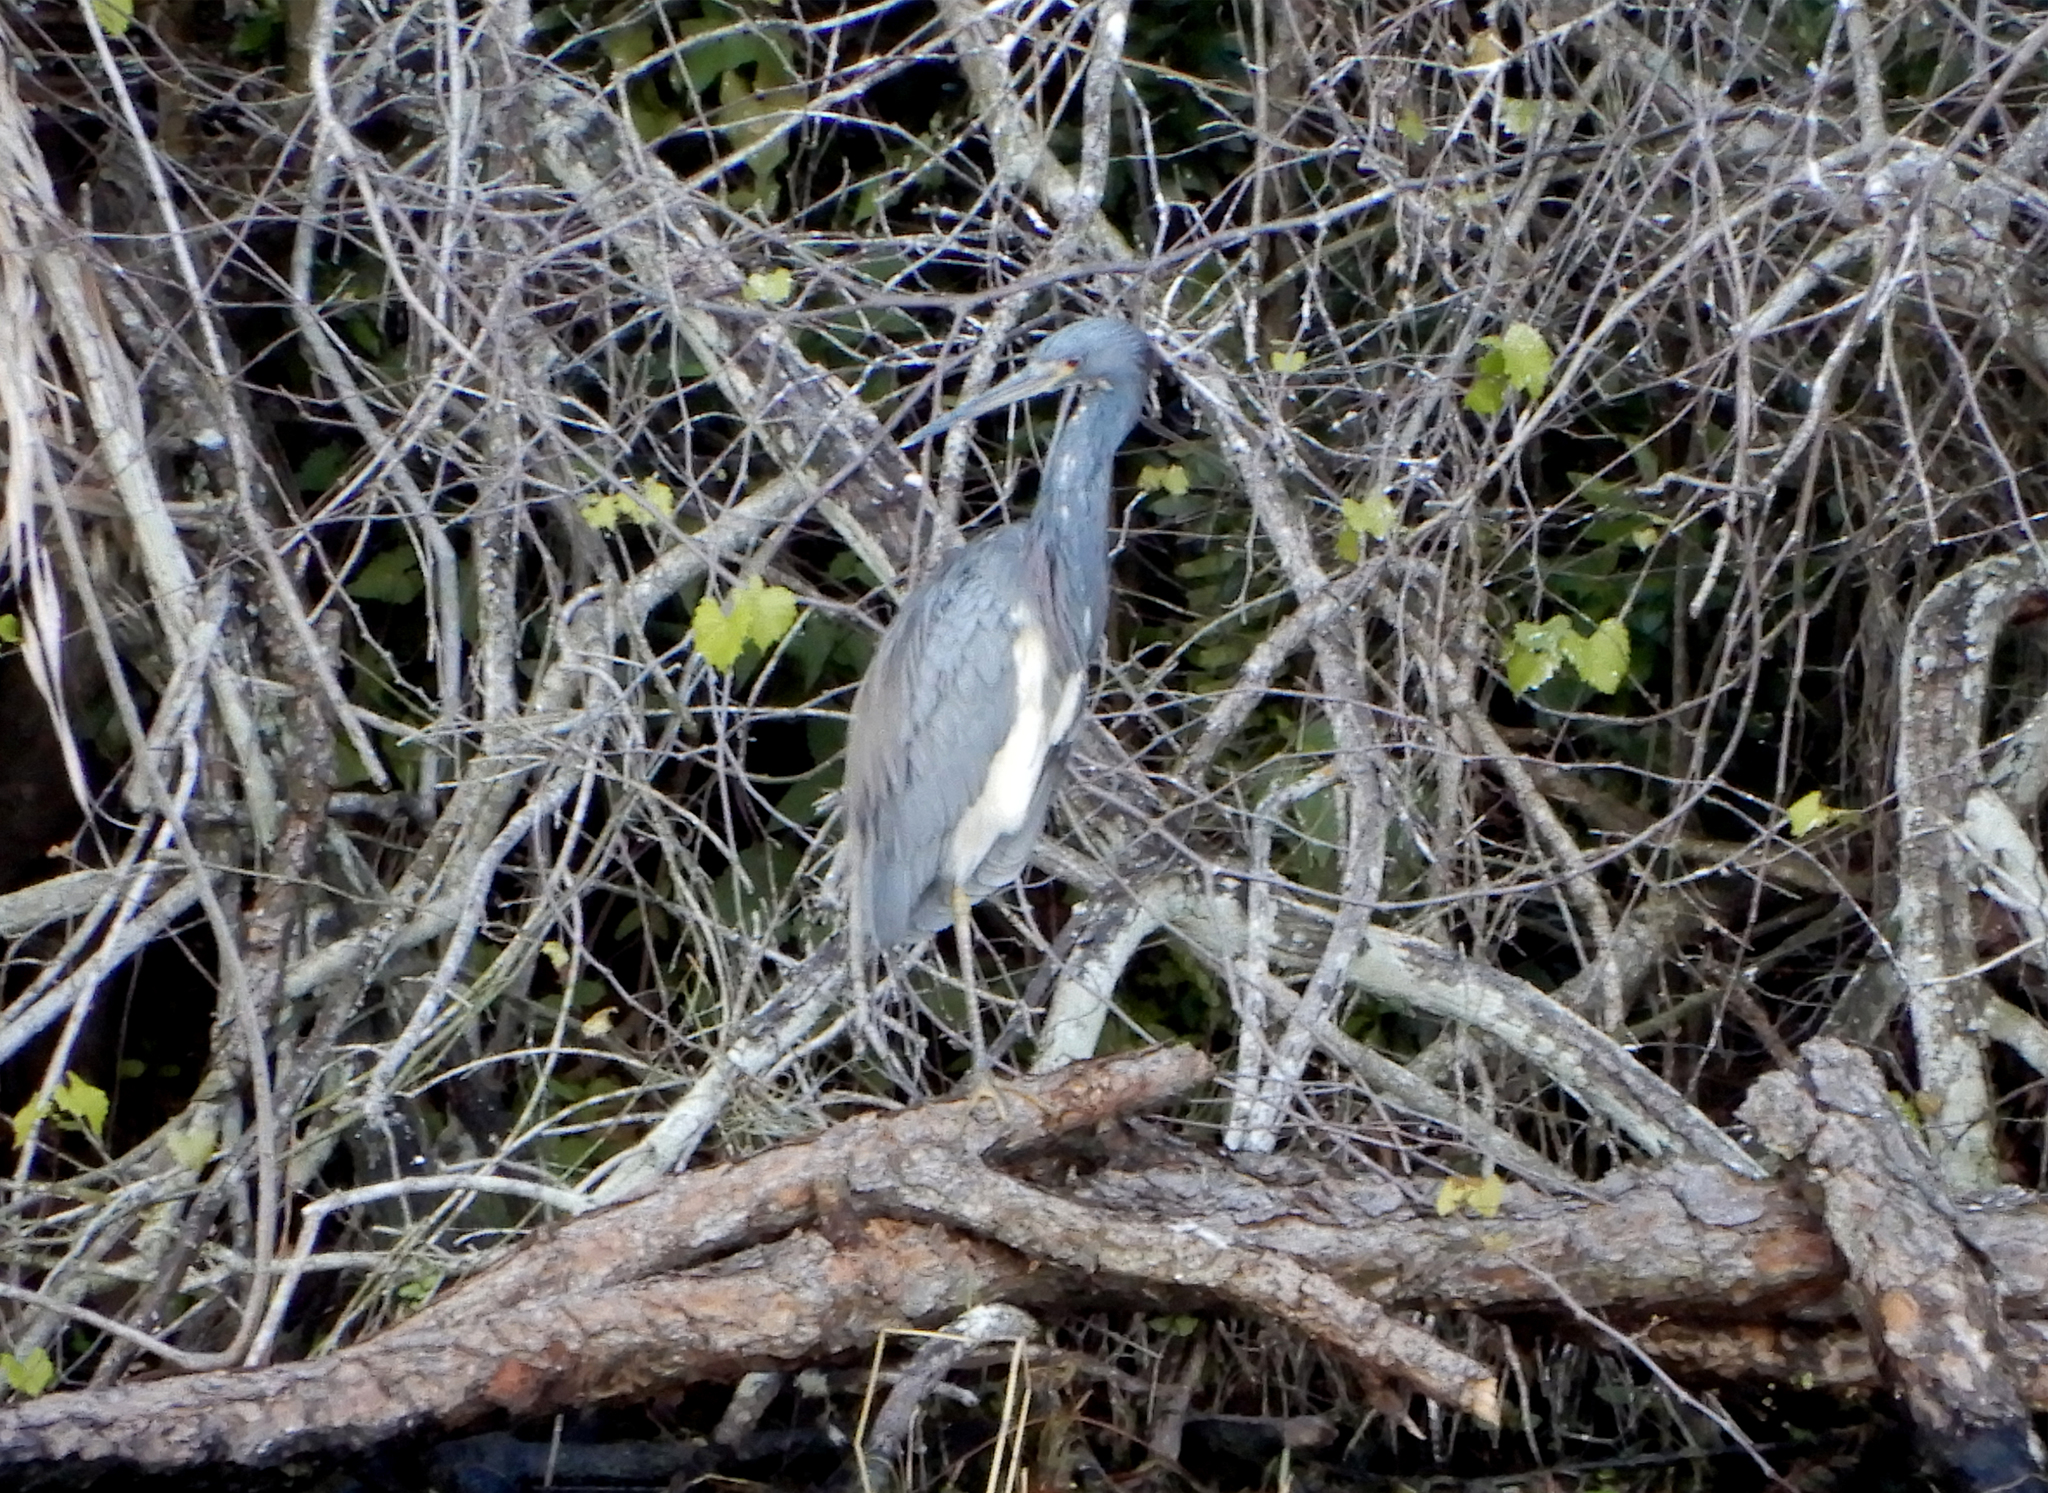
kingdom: Animalia
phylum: Chordata
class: Aves
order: Pelecaniformes
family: Ardeidae
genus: Egretta
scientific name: Egretta tricolor
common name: Tricolored heron
